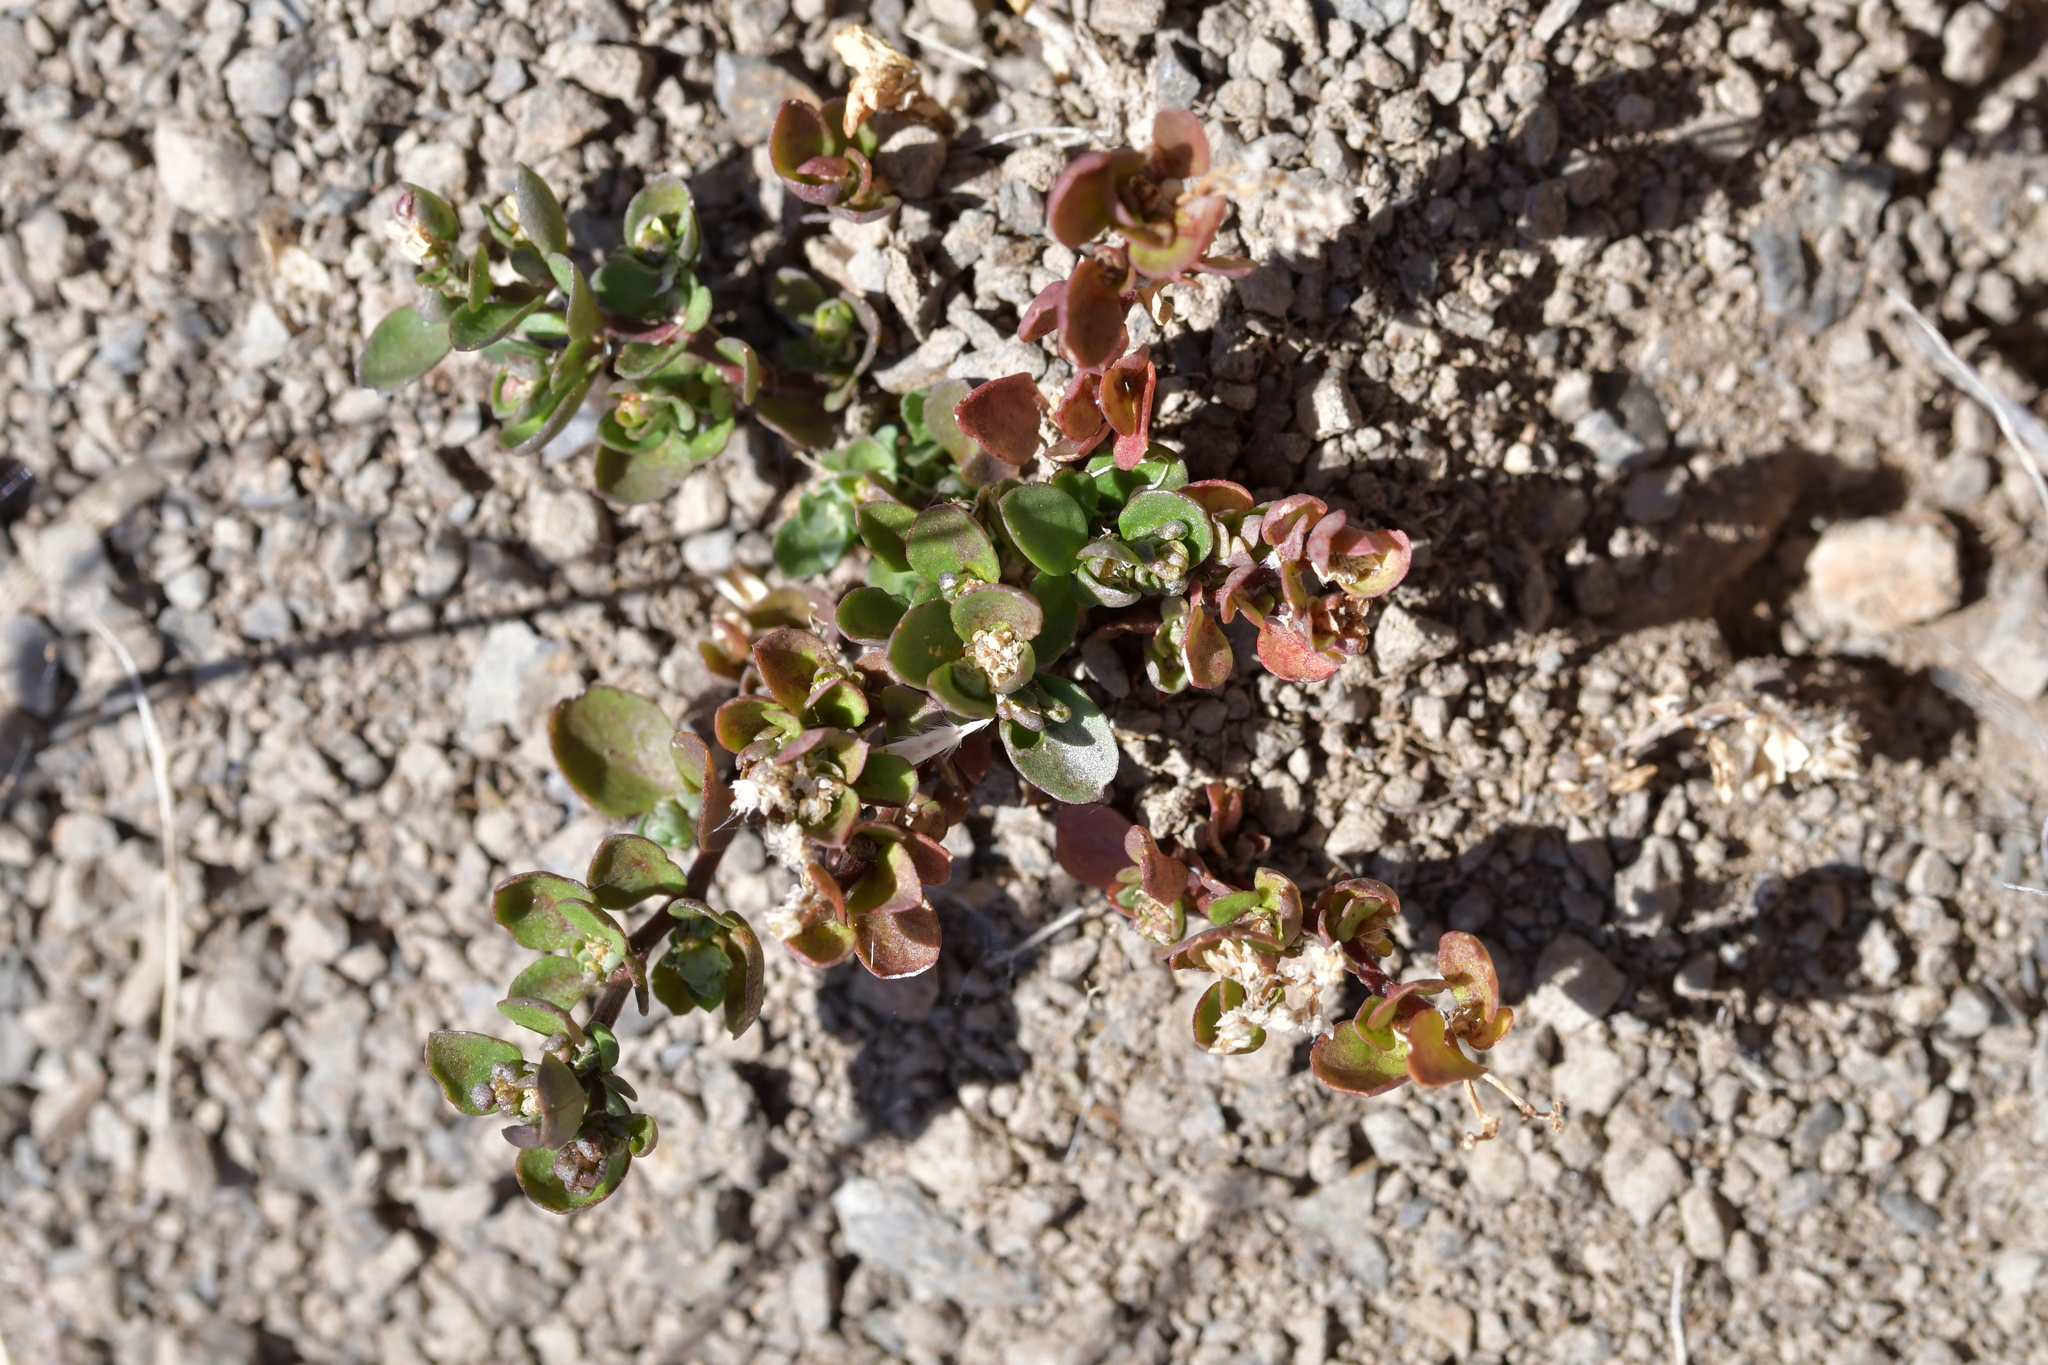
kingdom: Plantae
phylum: Tracheophyta
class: Magnoliopsida
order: Caryophyllales
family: Caryophyllaceae
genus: Polycarpon
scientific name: Polycarpon tetraphyllum
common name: Four-leaved all-seed
